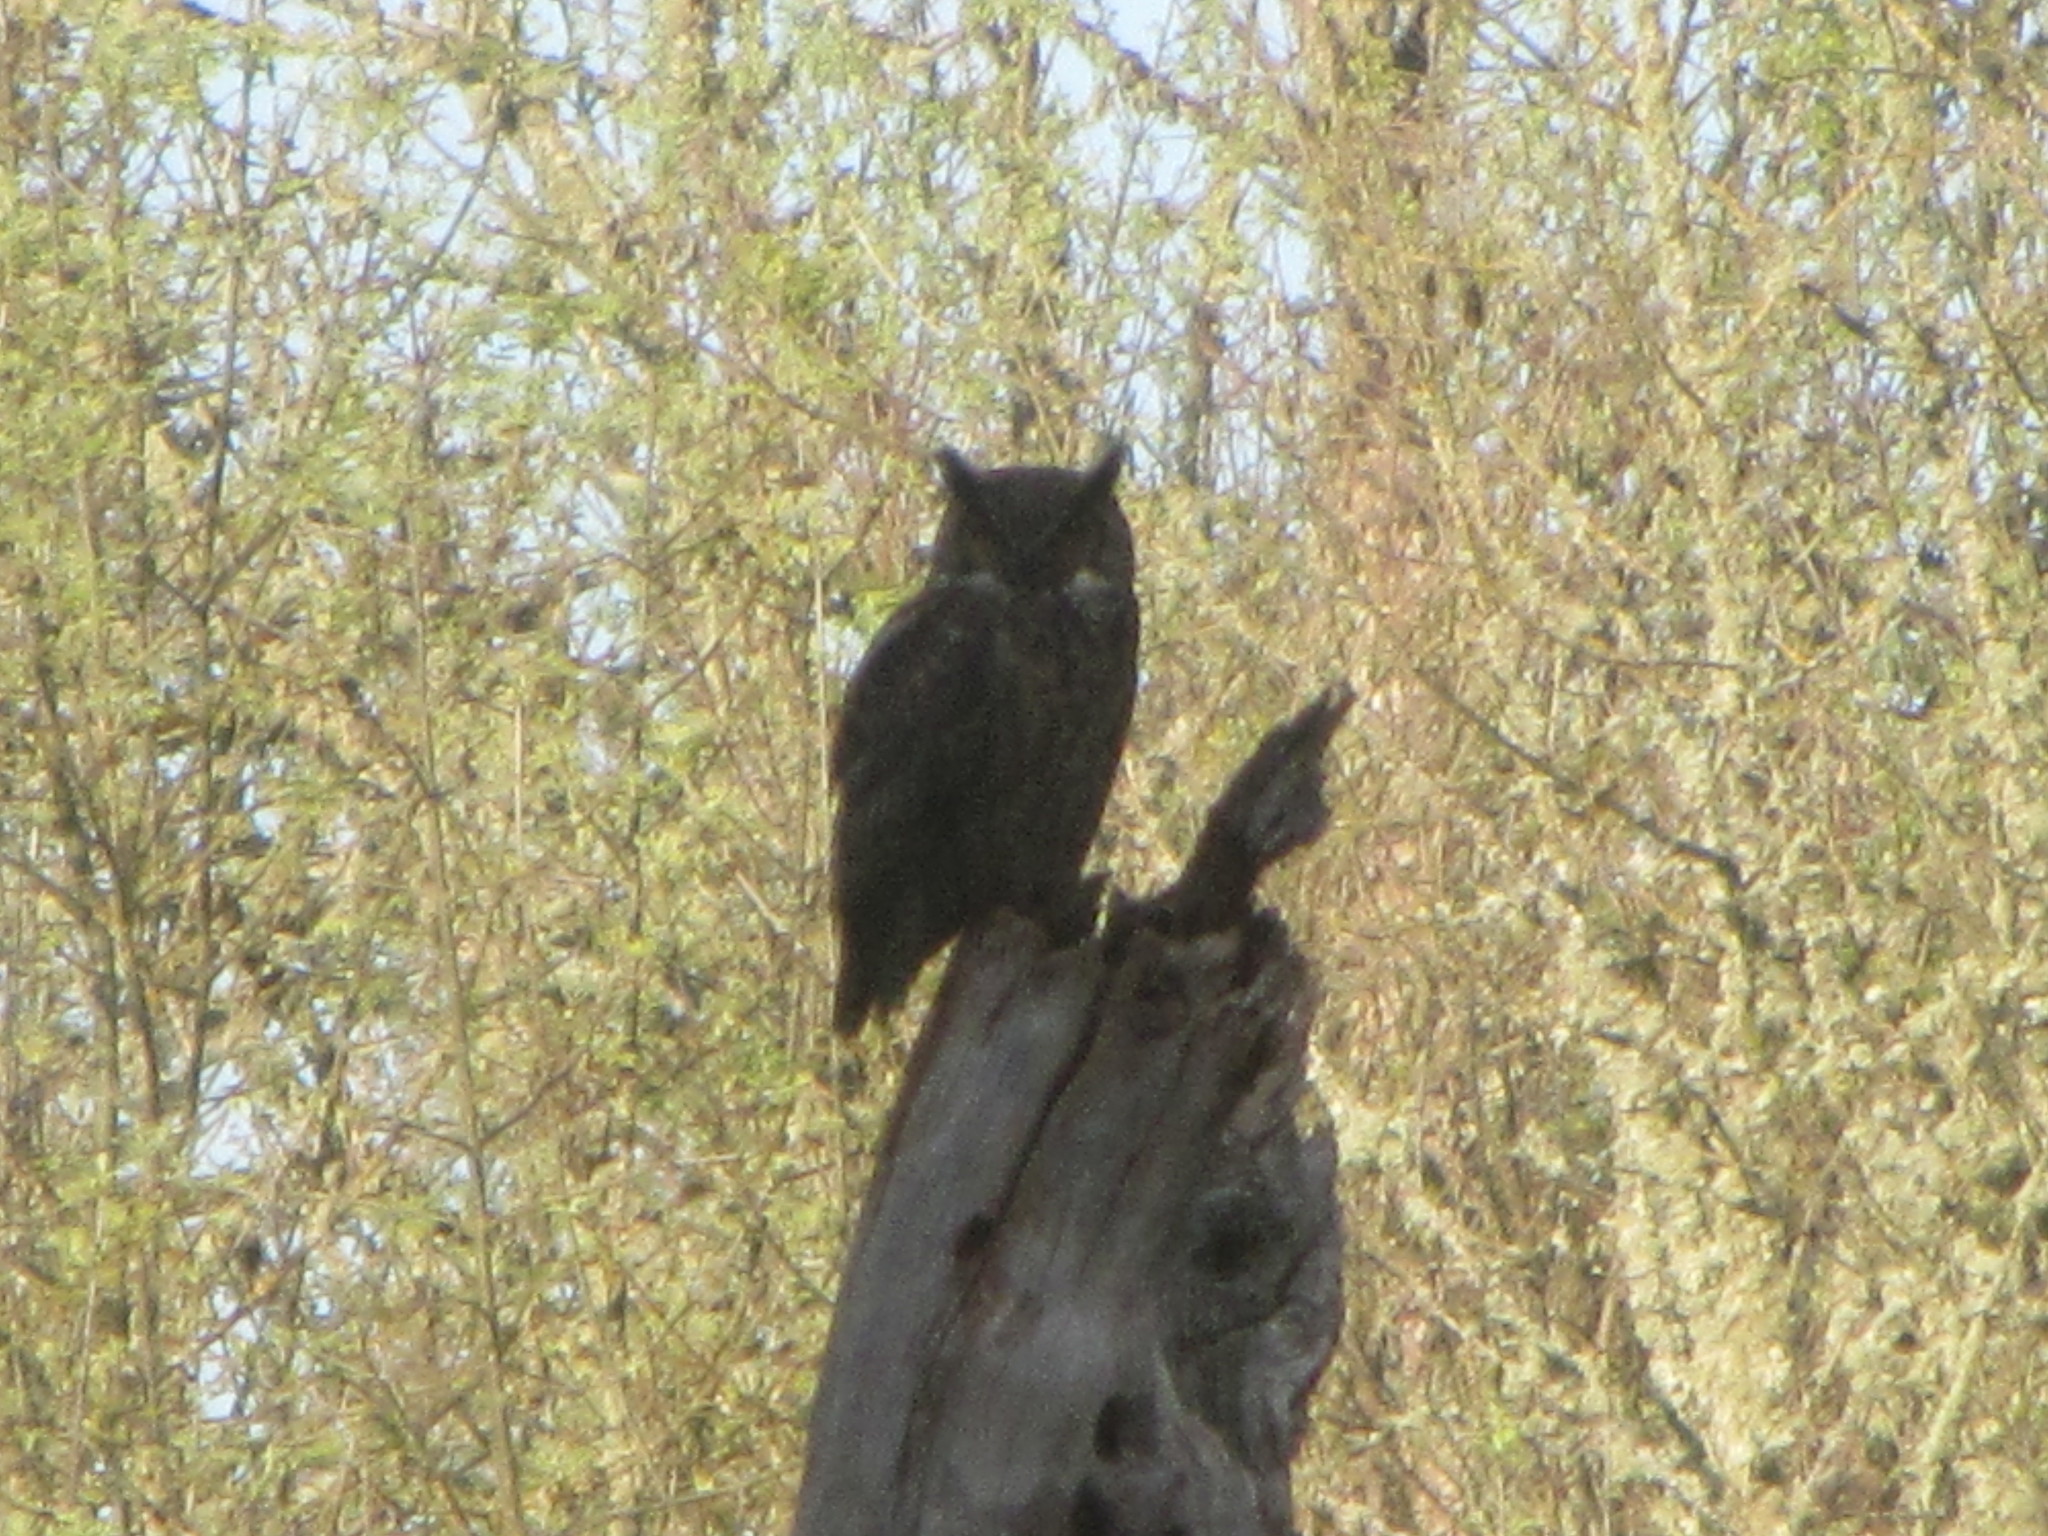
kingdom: Animalia
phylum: Chordata
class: Aves
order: Strigiformes
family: Strigidae
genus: Bubo
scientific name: Bubo virginianus
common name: Great horned owl
